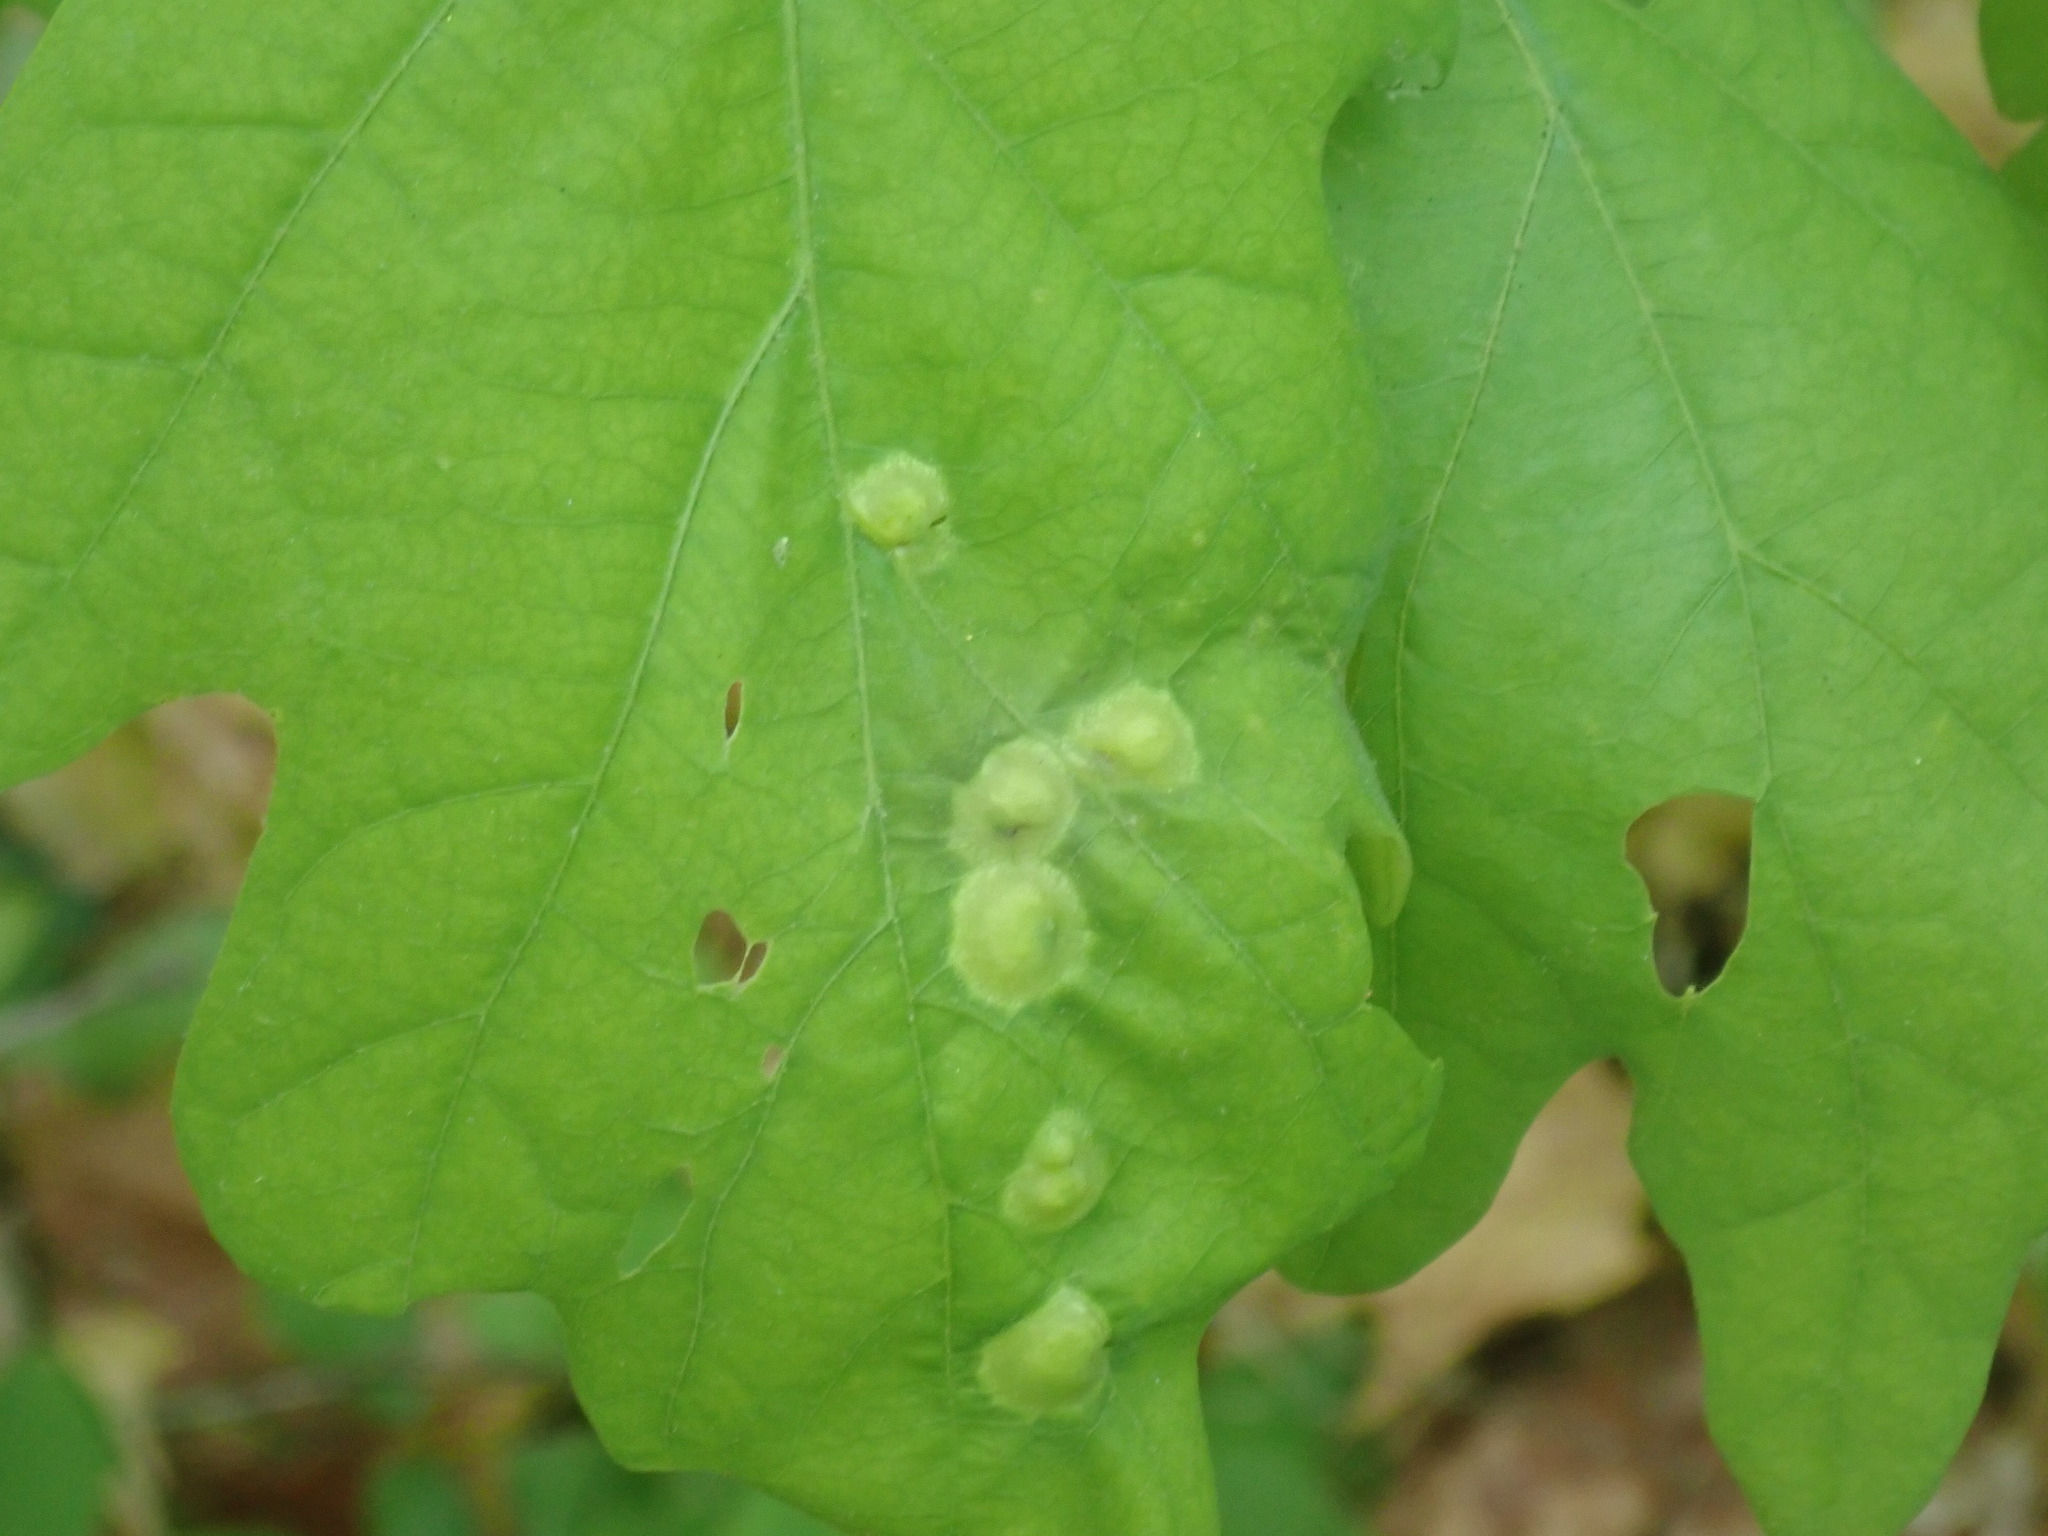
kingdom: Animalia
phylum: Arthropoda
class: Insecta
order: Hymenoptera
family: Cynipidae
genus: Callirhytis
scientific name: Callirhytis
